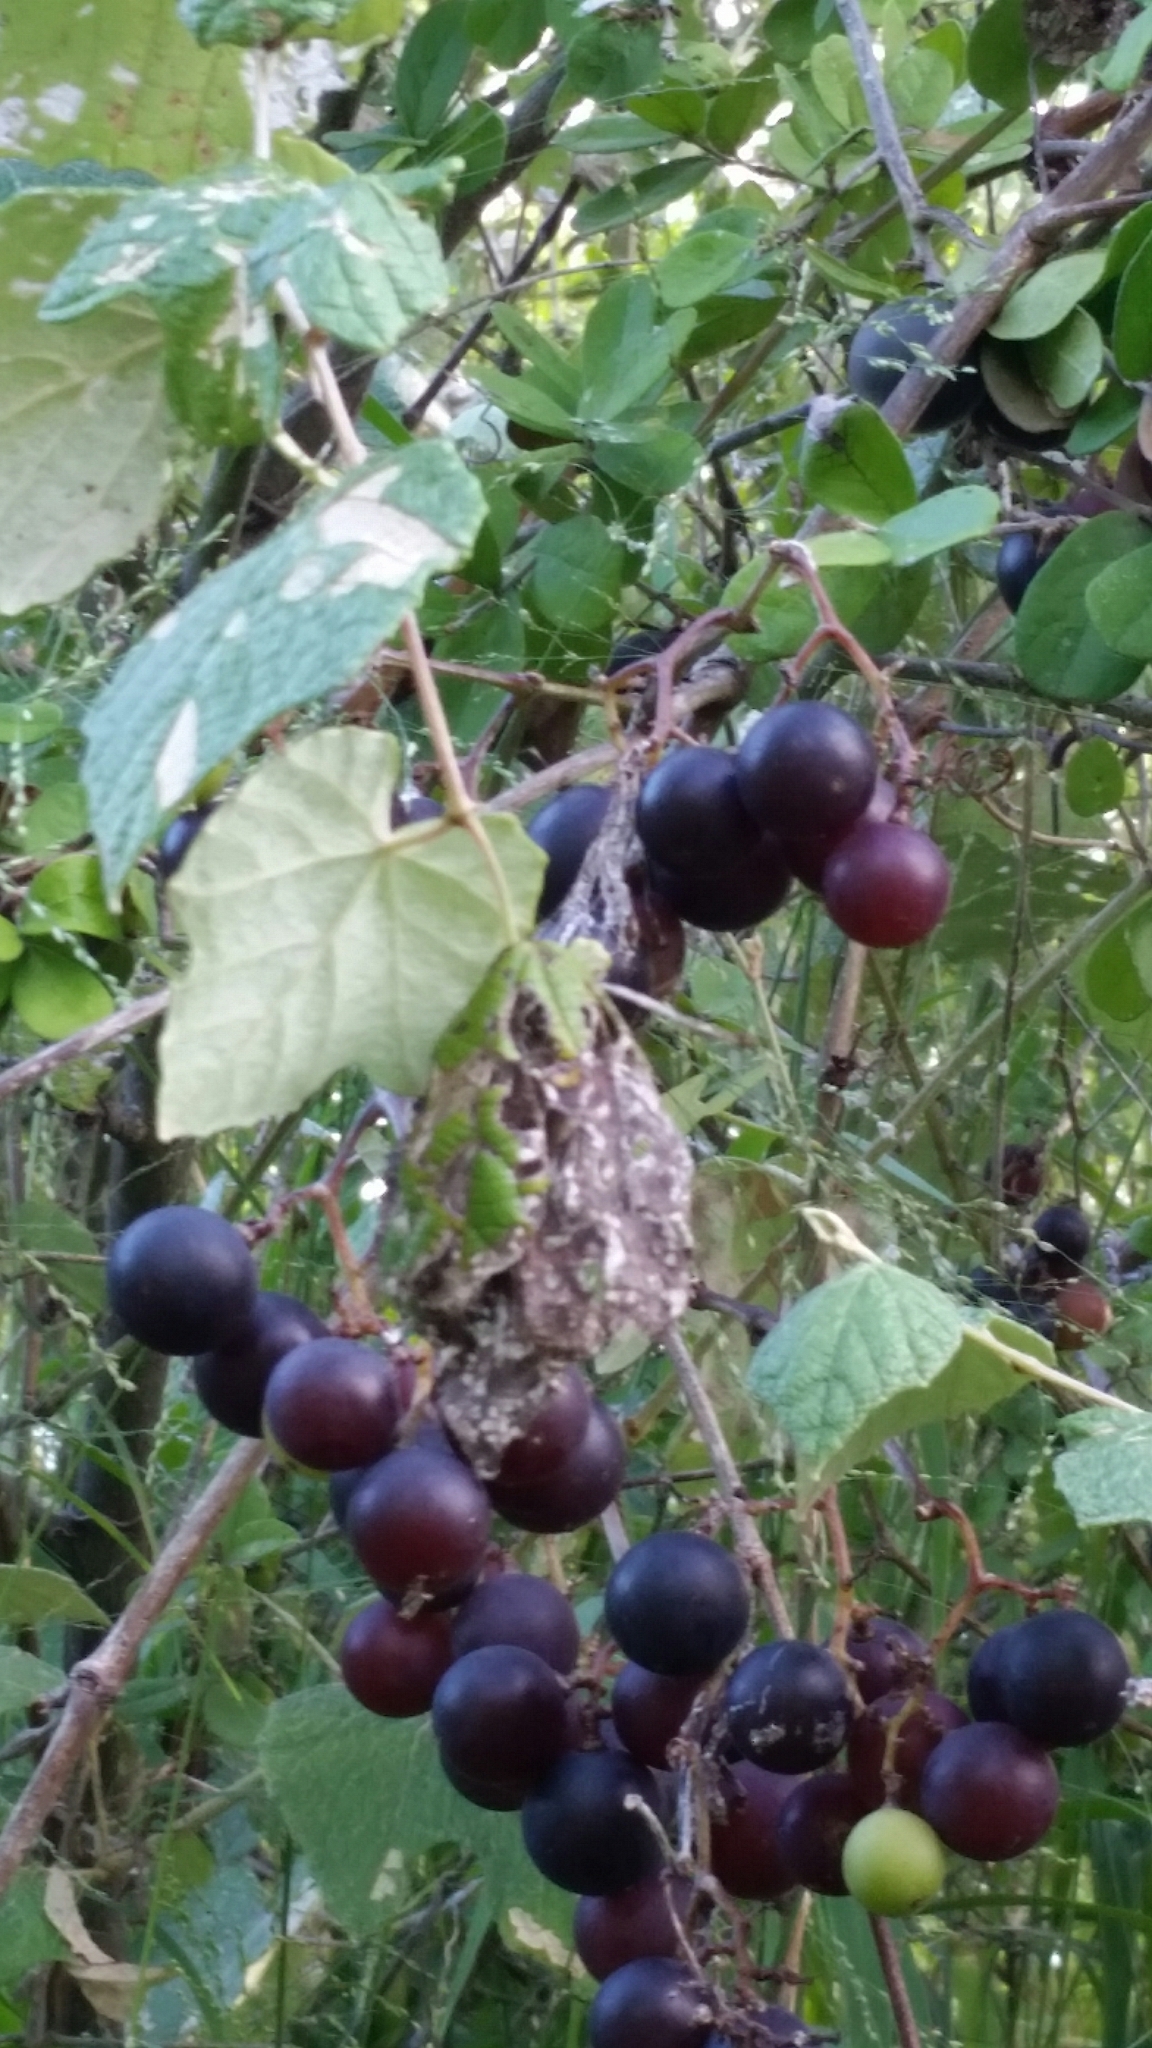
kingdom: Plantae
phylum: Tracheophyta
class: Magnoliopsida
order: Vitales
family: Vitaceae
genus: Vitis
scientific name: Vitis mustangensis
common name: Mustang grape
